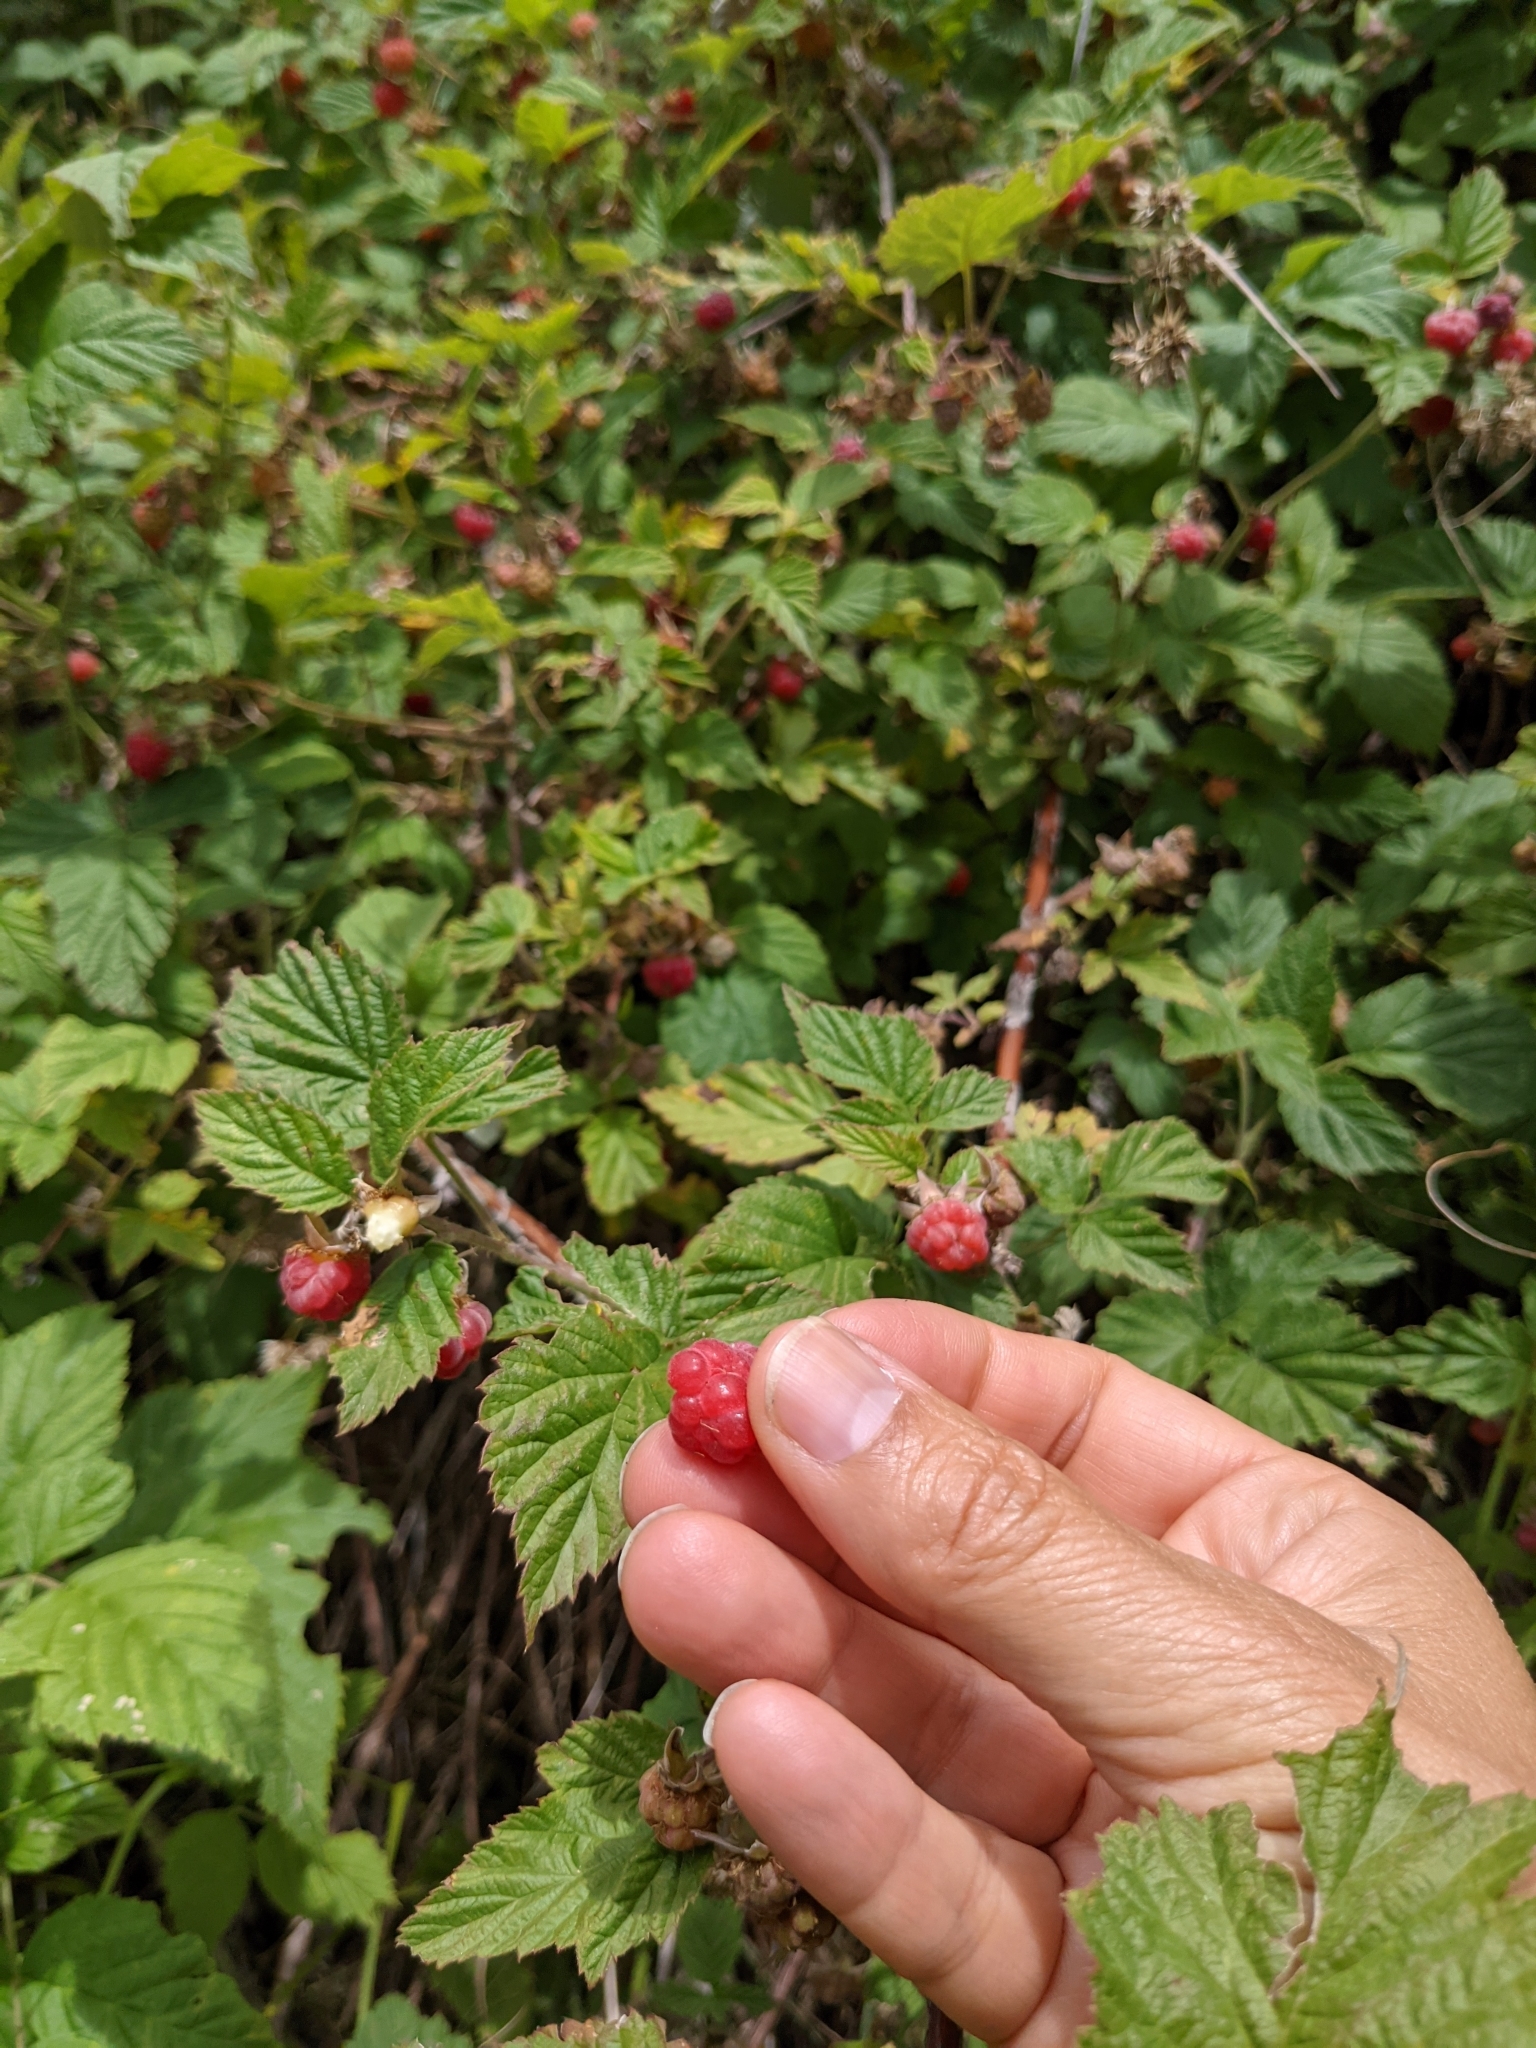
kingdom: Plantae
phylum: Tracheophyta
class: Magnoliopsida
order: Rosales
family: Rosaceae
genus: Rubus
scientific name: Rubus idaeus
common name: Raspberry
